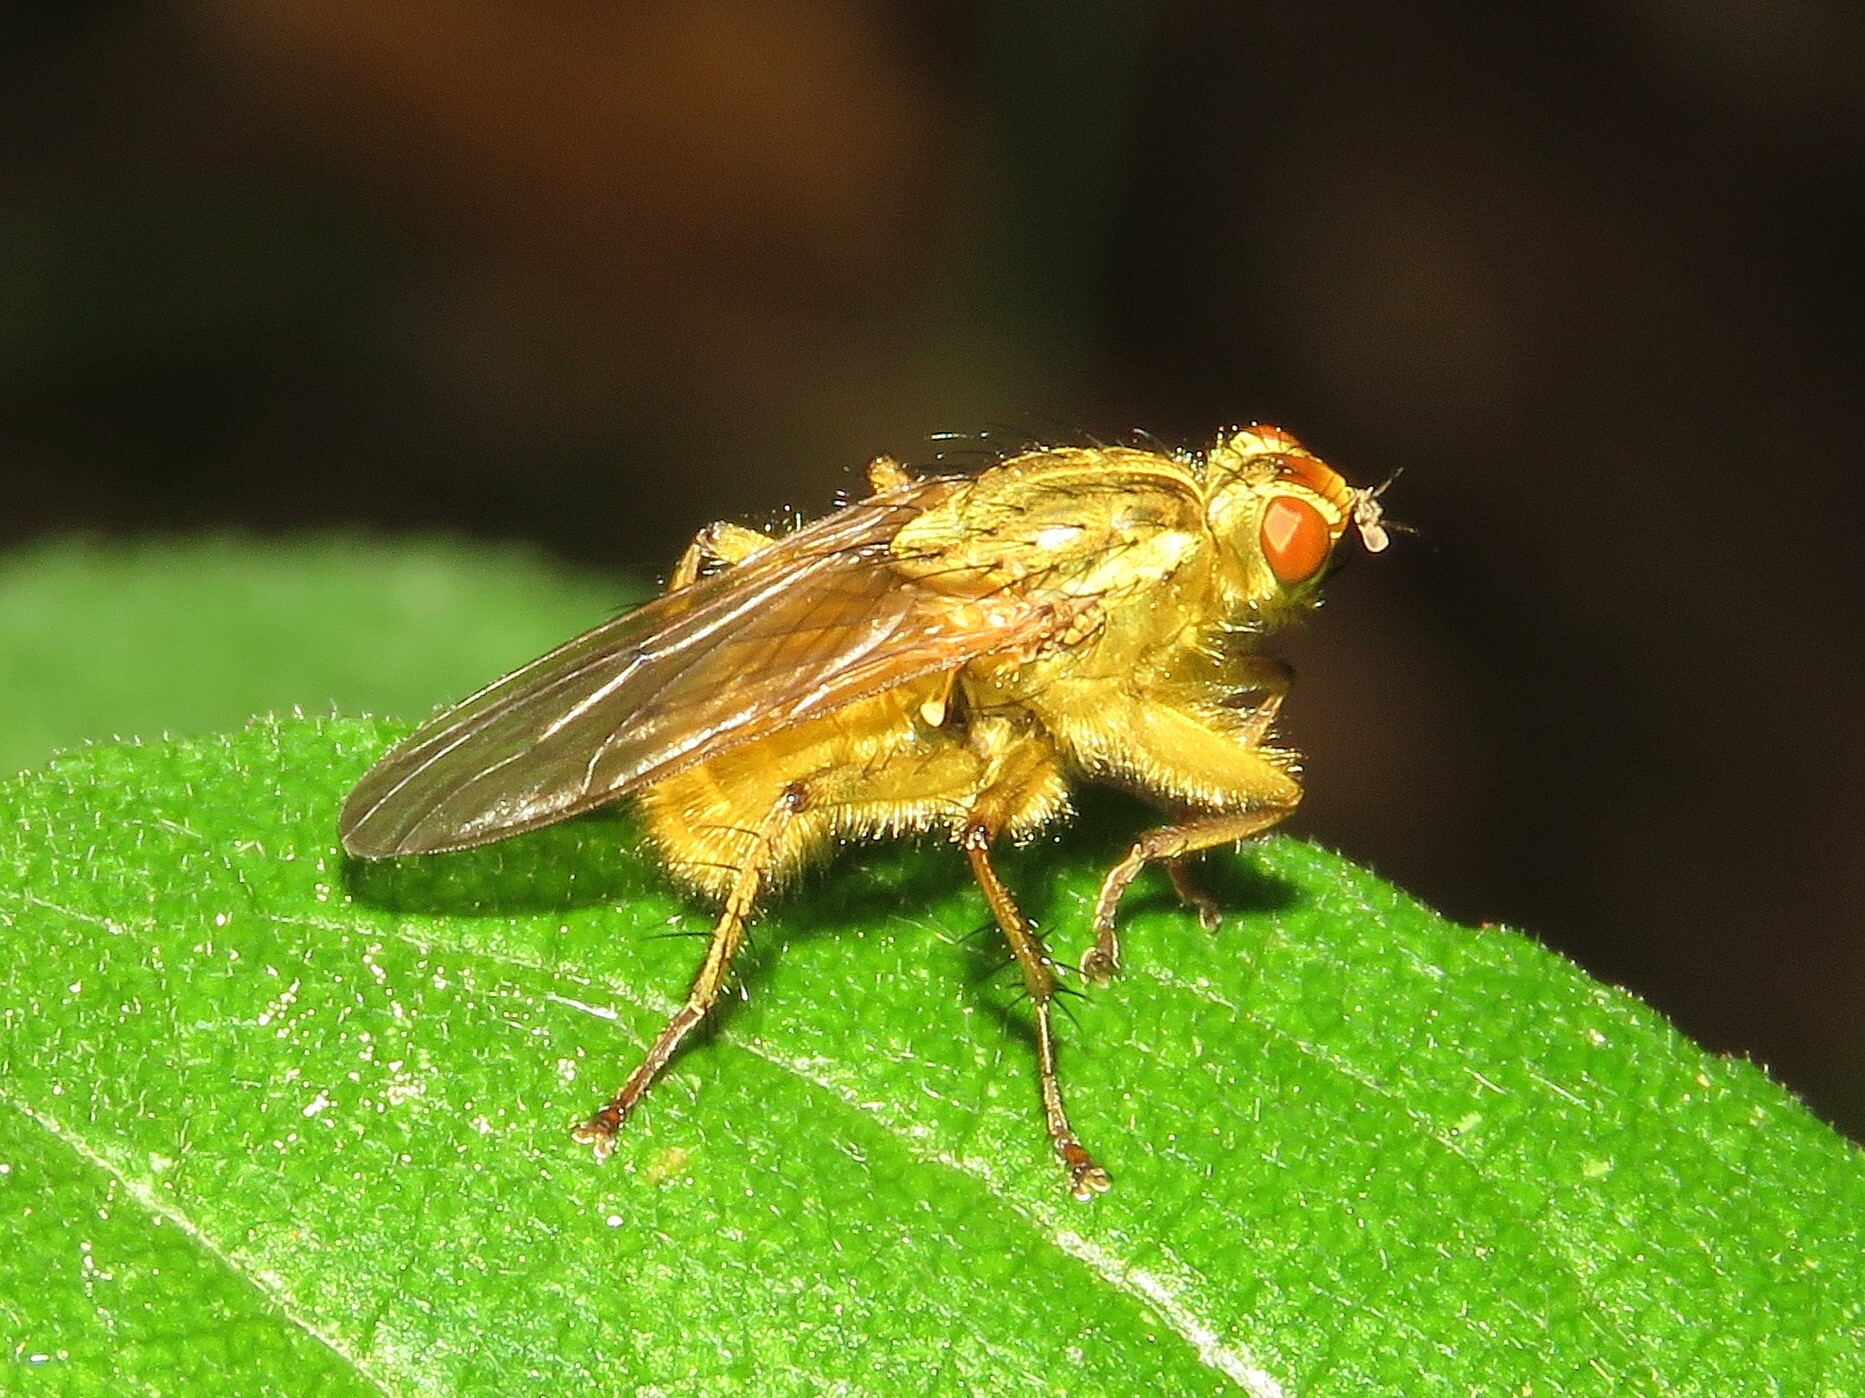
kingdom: Animalia
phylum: Arthropoda
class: Insecta
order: Diptera
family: Scathophagidae
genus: Scathophaga
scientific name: Scathophaga stercoraria
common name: Yellow dung fly
